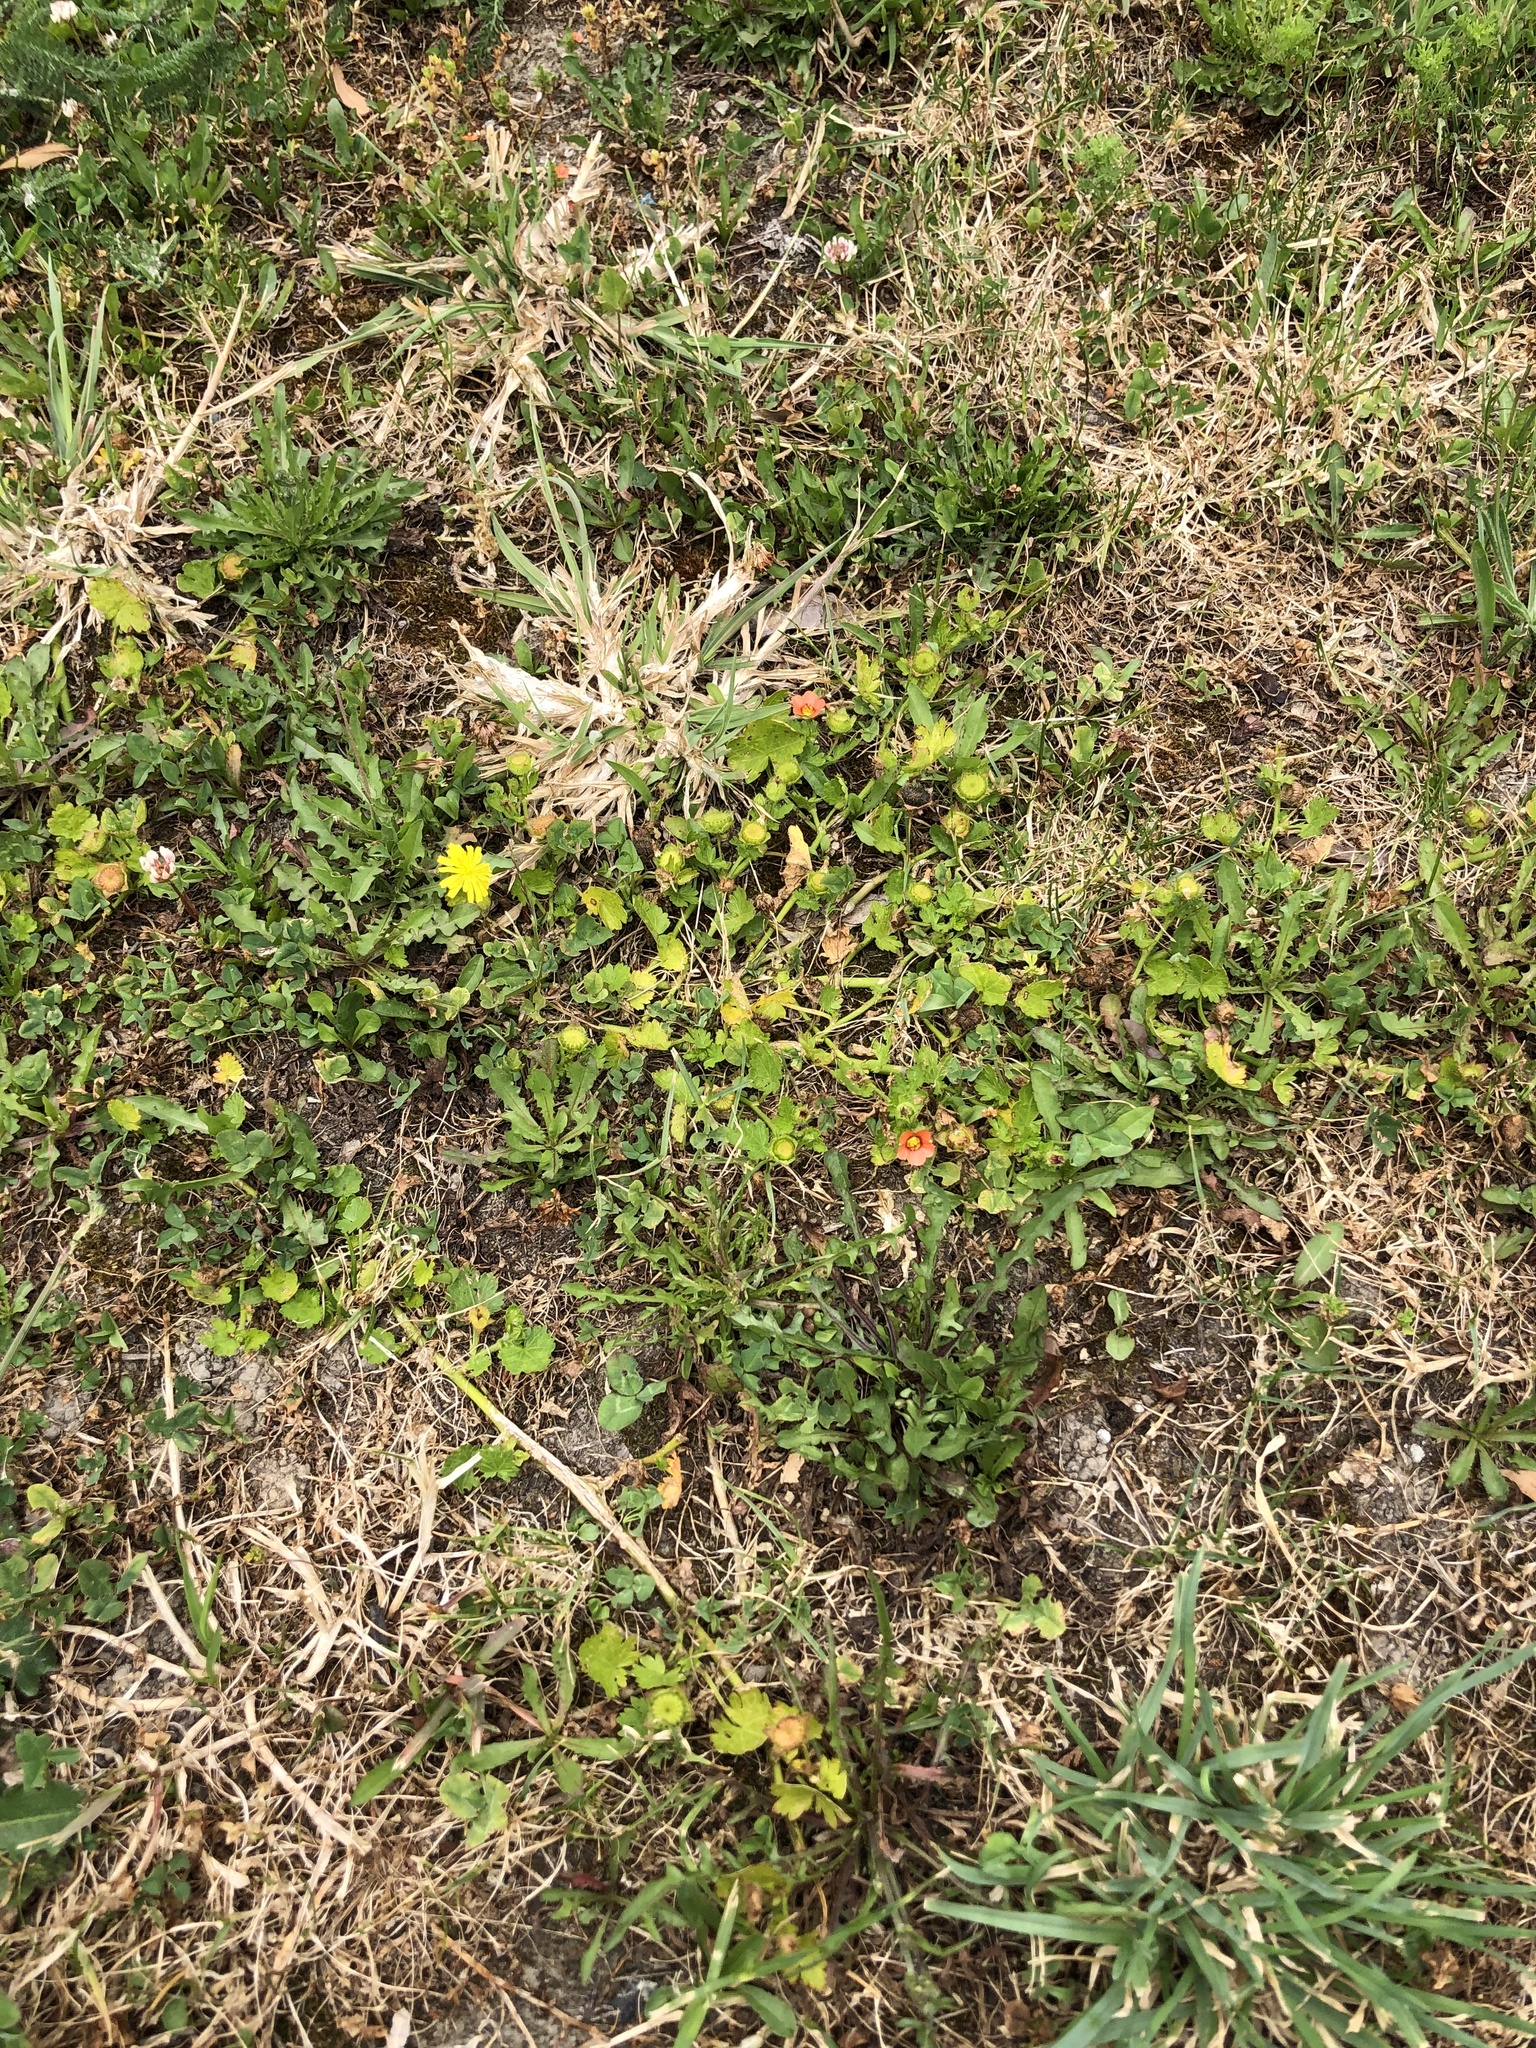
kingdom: Plantae
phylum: Tracheophyta
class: Magnoliopsida
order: Malvales
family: Malvaceae
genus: Modiola
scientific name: Modiola caroliniana
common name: Carolina bristlemallow
